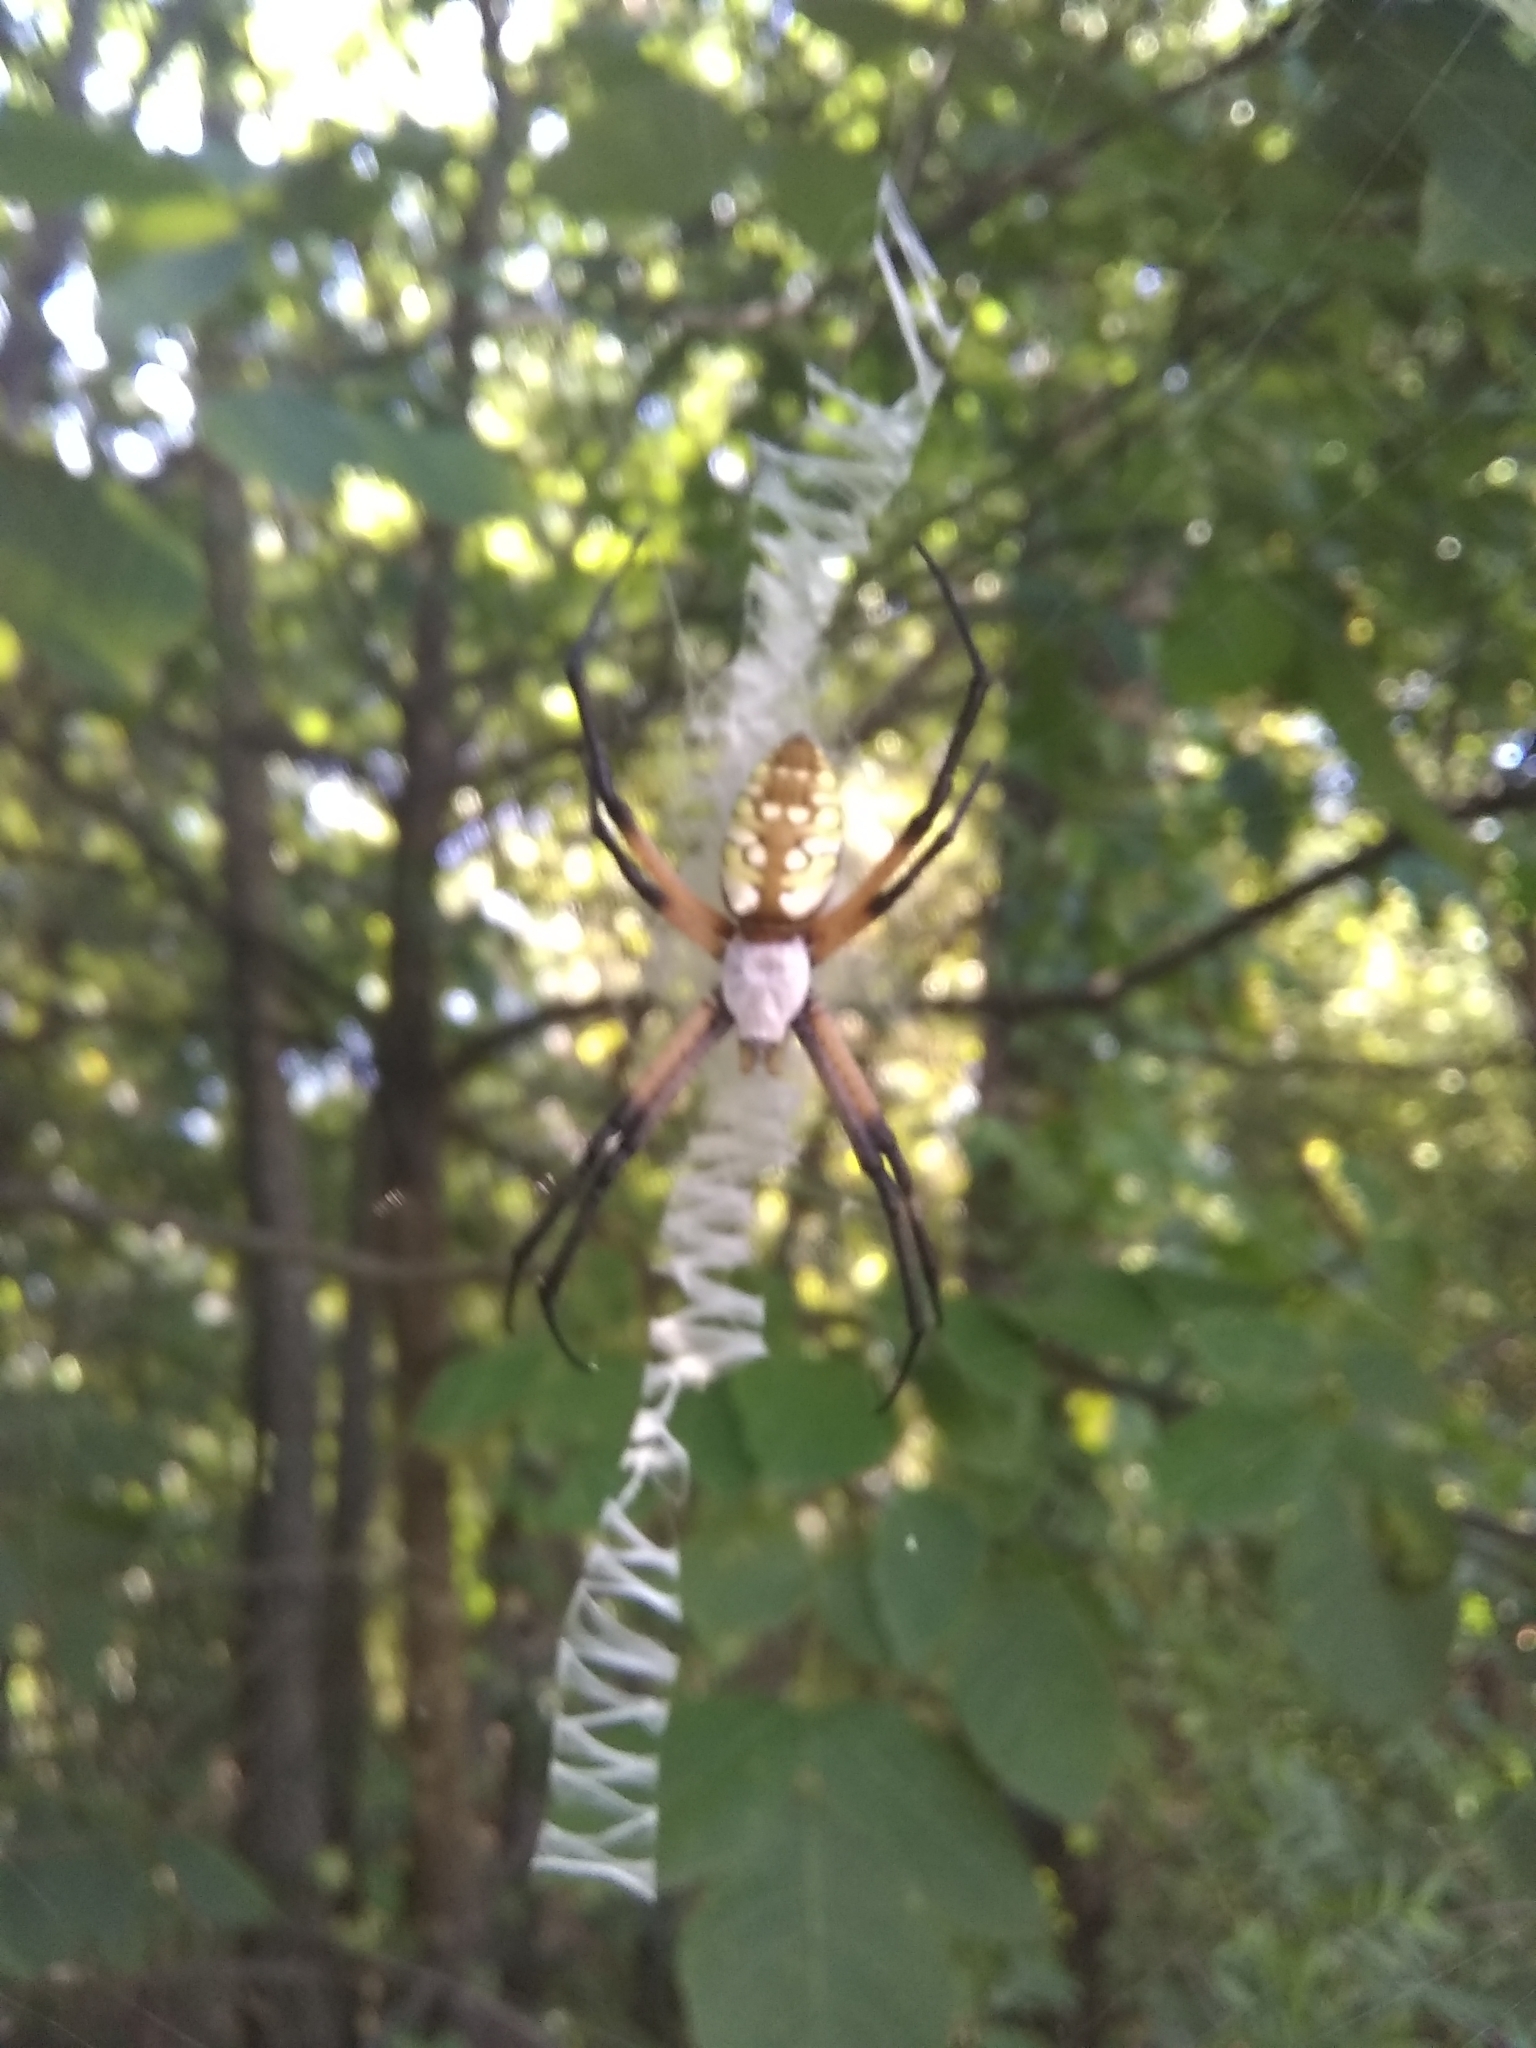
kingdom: Animalia
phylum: Arthropoda
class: Arachnida
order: Araneae
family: Araneidae
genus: Argiope
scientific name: Argiope aurantia
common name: Orb weavers
